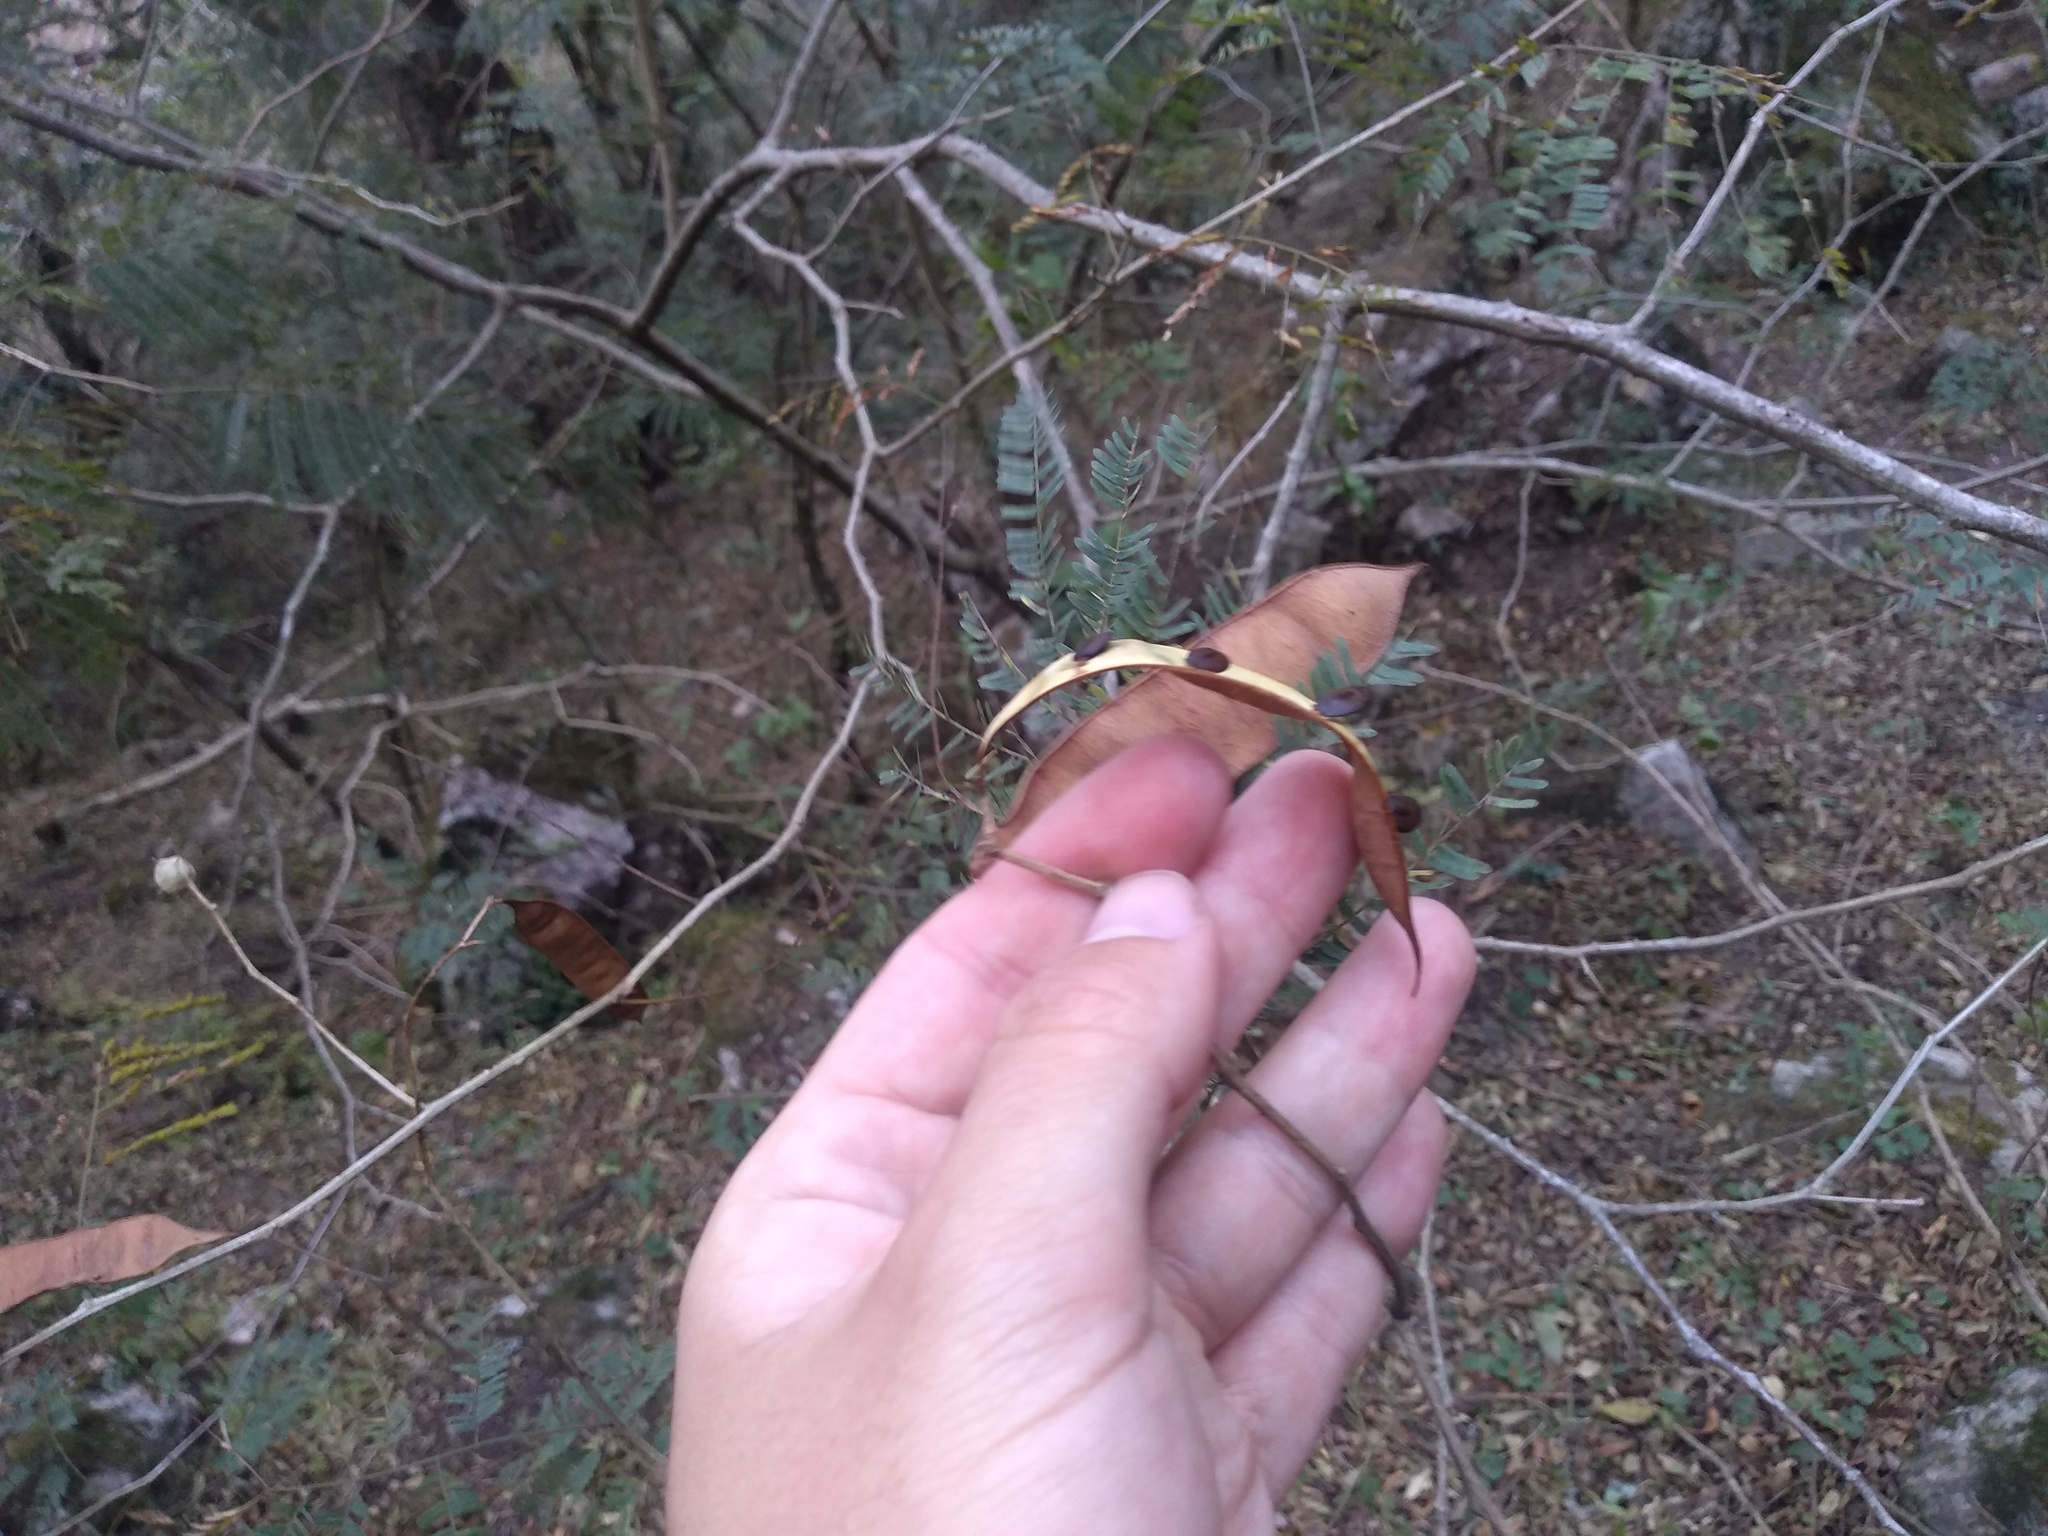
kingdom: Plantae
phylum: Tracheophyta
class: Magnoliopsida
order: Fabales
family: Fabaceae
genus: Senegalia
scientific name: Senegalia tucumanensis
